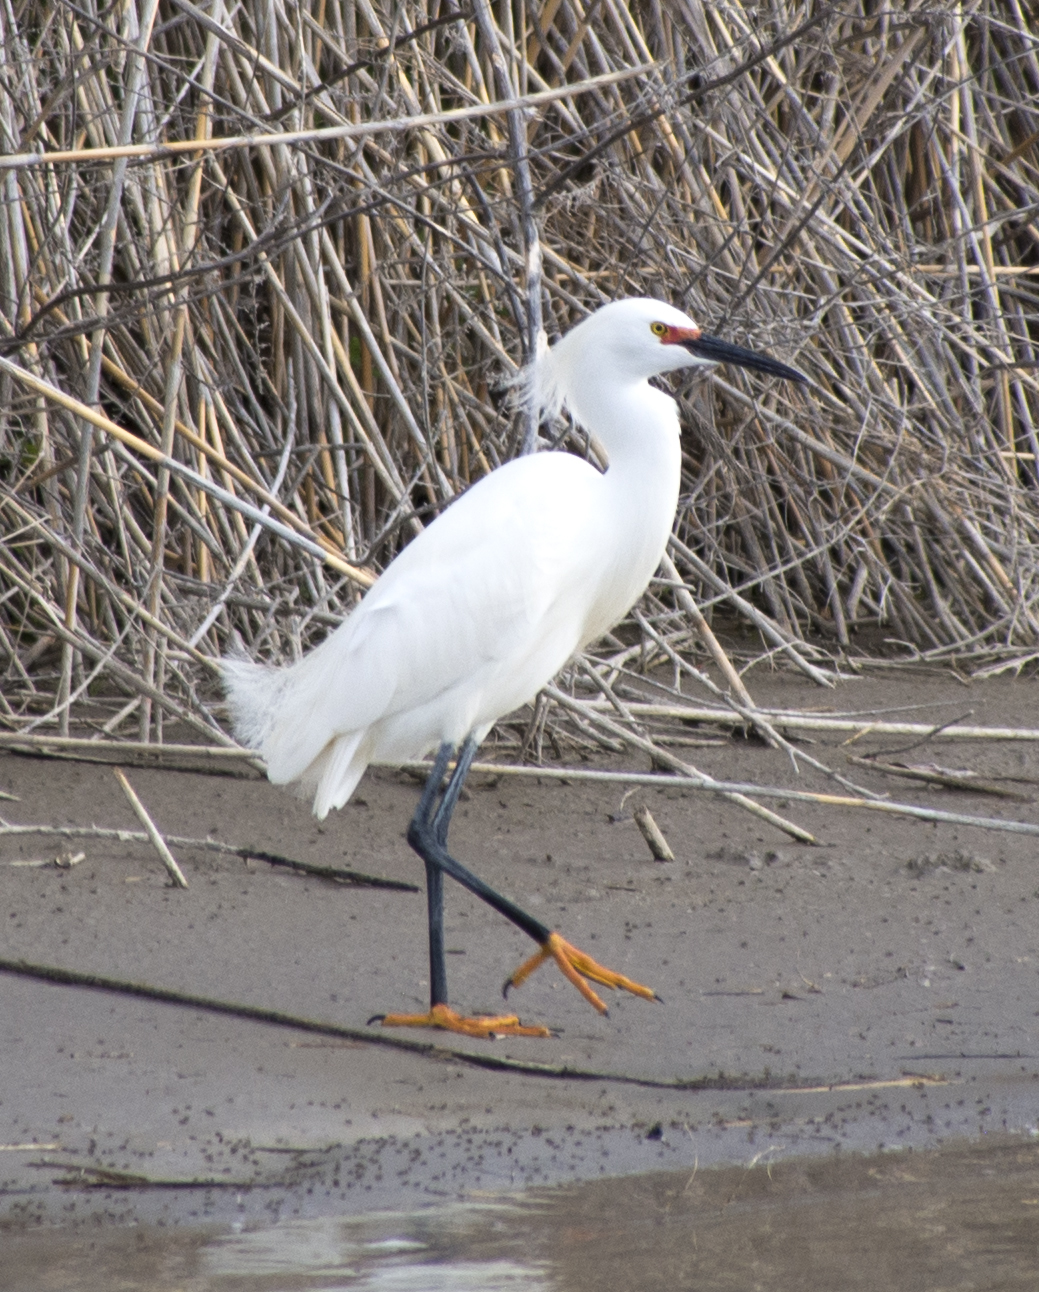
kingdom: Animalia
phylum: Chordata
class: Aves
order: Pelecaniformes
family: Ardeidae
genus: Egretta
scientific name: Egretta thula
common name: Snowy egret
